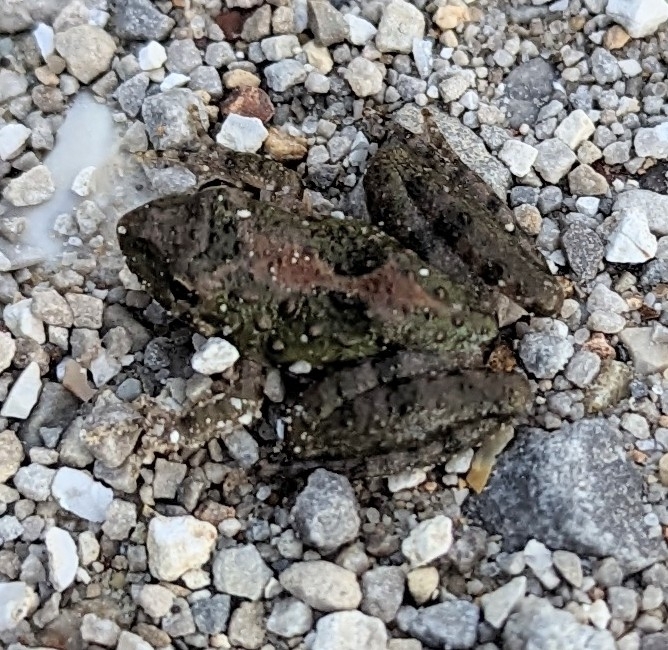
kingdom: Animalia
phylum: Chordata
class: Amphibia
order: Anura
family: Hylidae
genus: Acris
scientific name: Acris blanchardi
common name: Blanchard's cricket frog
